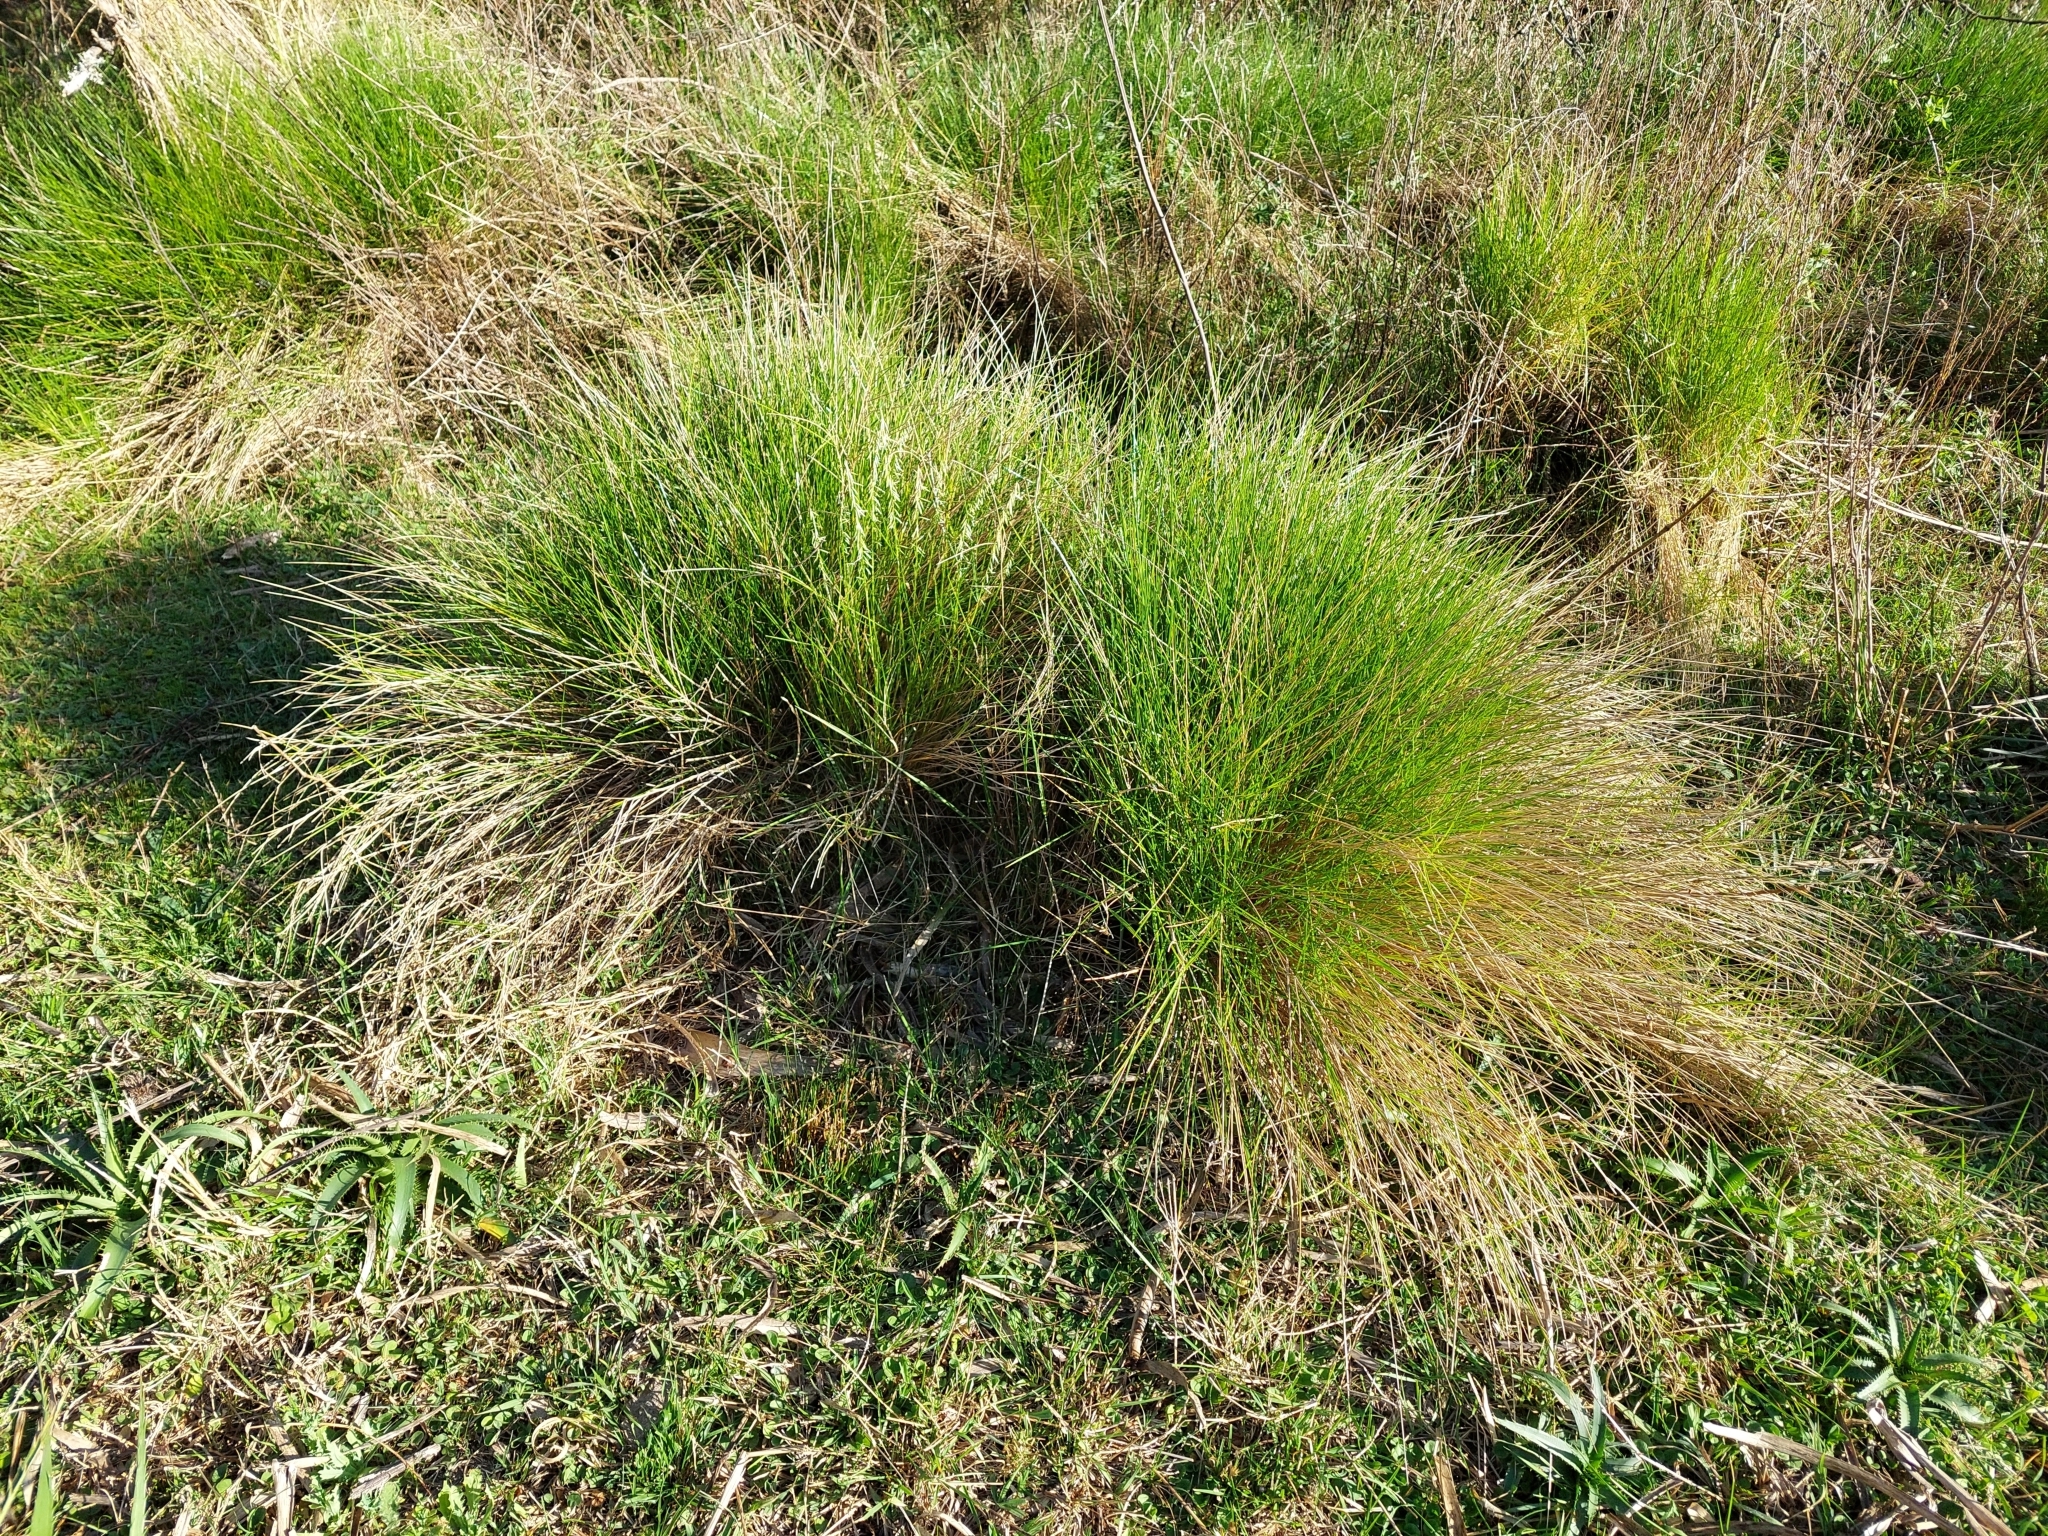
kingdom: Plantae
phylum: Tracheophyta
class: Liliopsida
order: Poales
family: Poaceae
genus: Melica
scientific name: Melica macra
